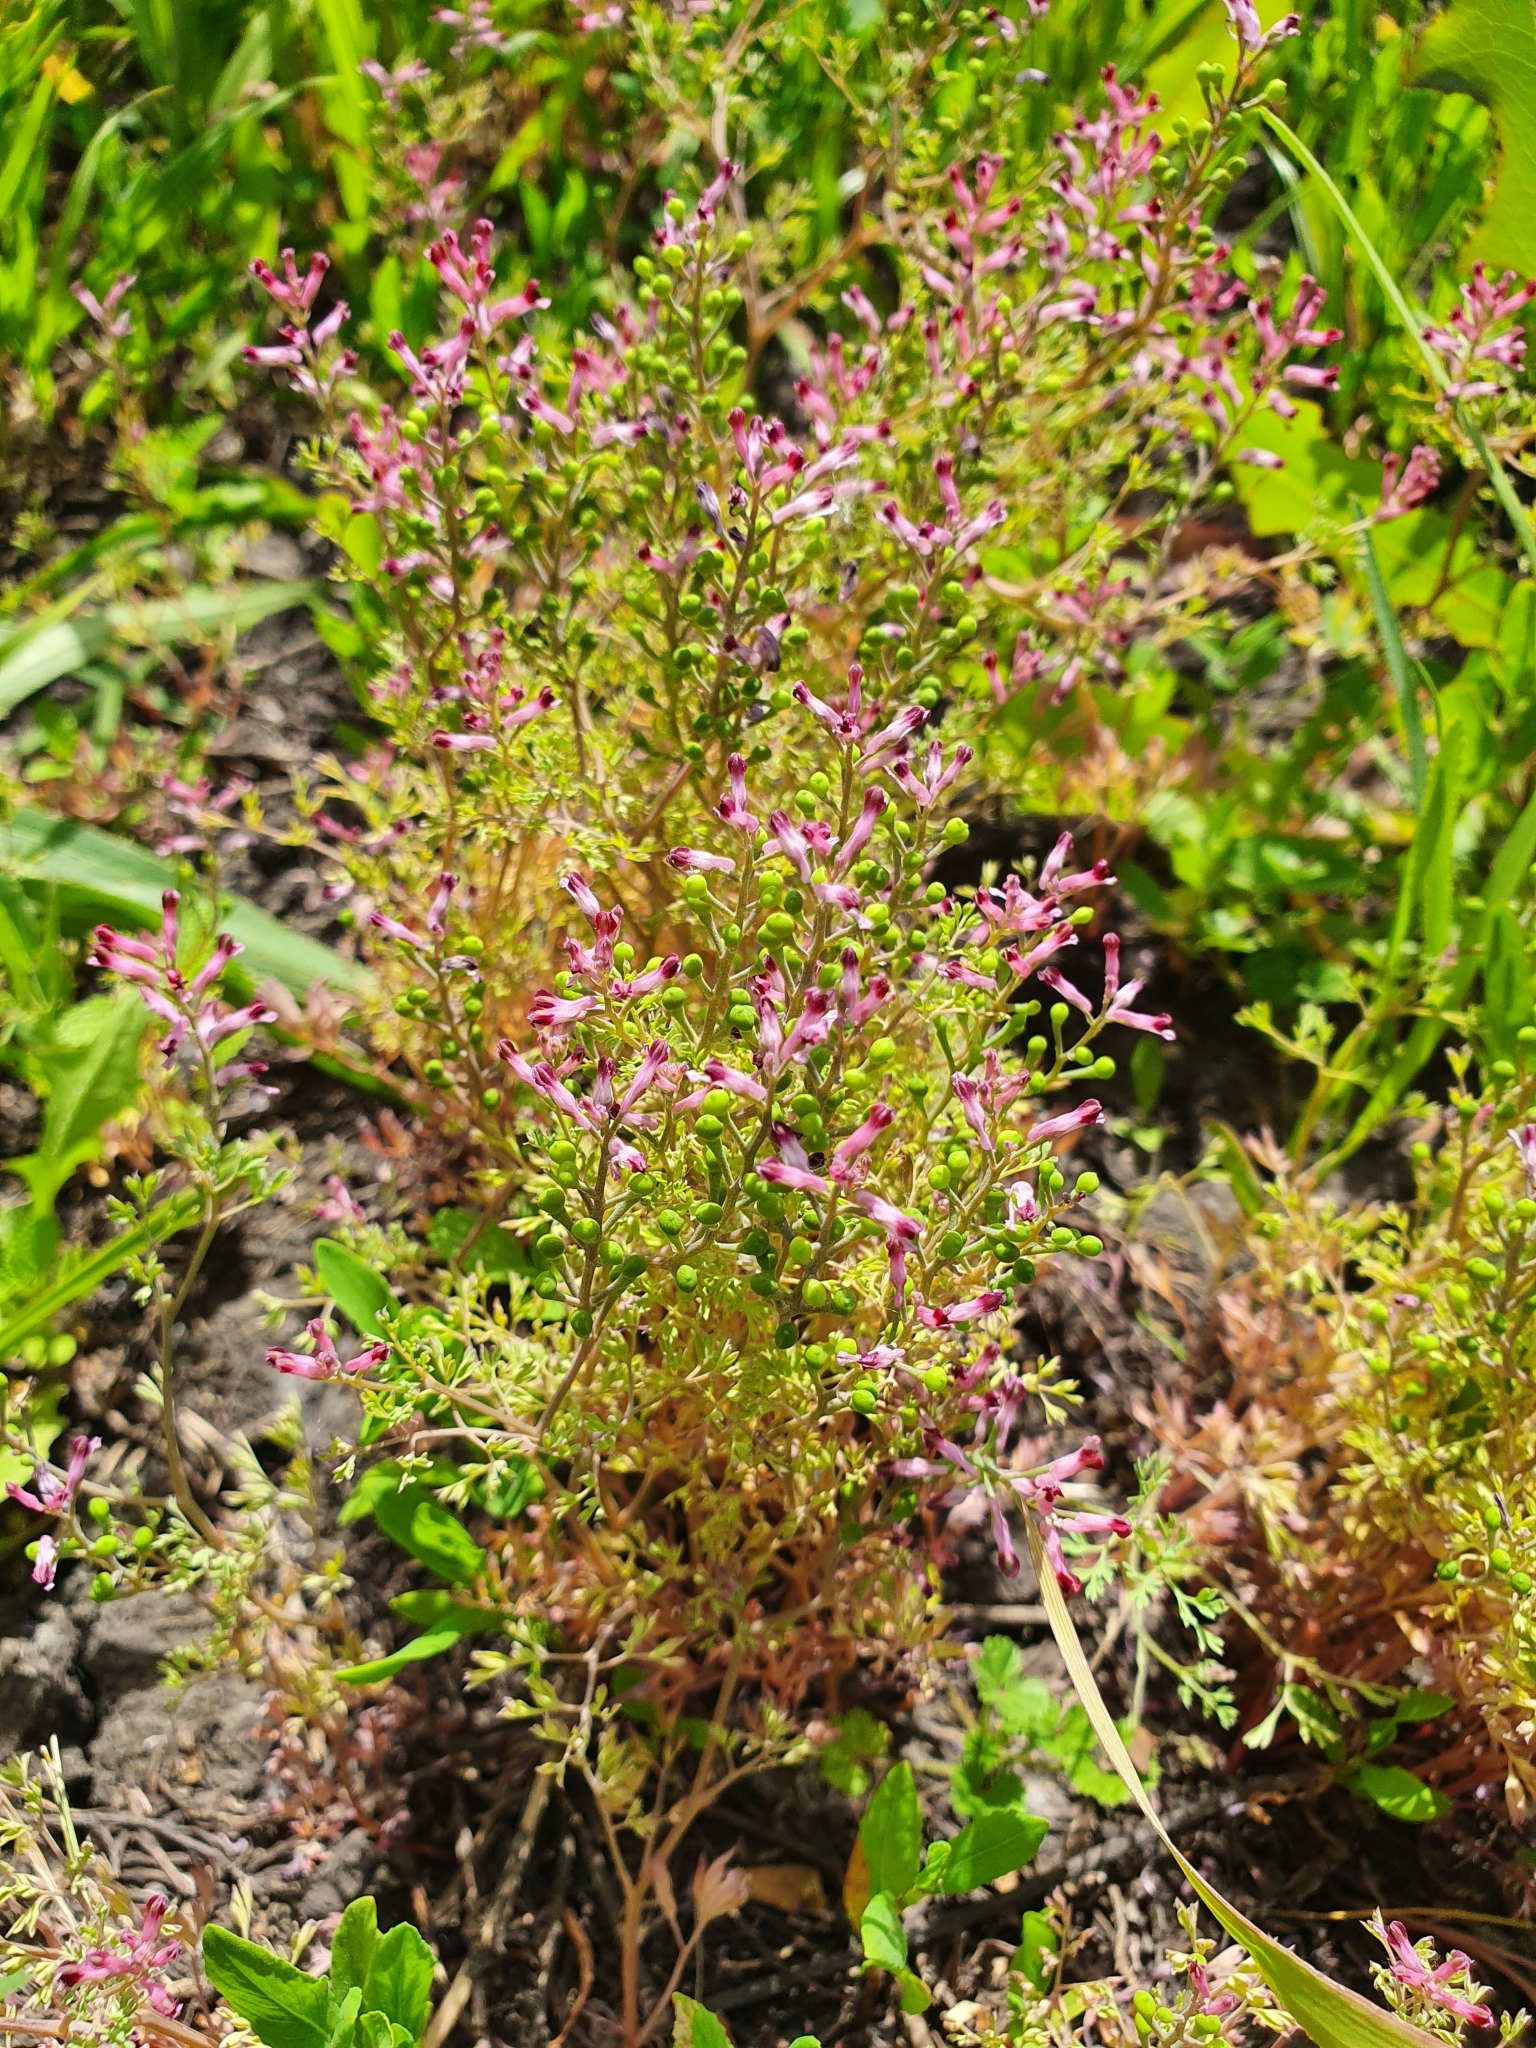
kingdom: Plantae
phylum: Tracheophyta
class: Magnoliopsida
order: Ranunculales
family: Papaveraceae
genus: Fumaria
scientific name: Fumaria officinalis
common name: Common fumitory
